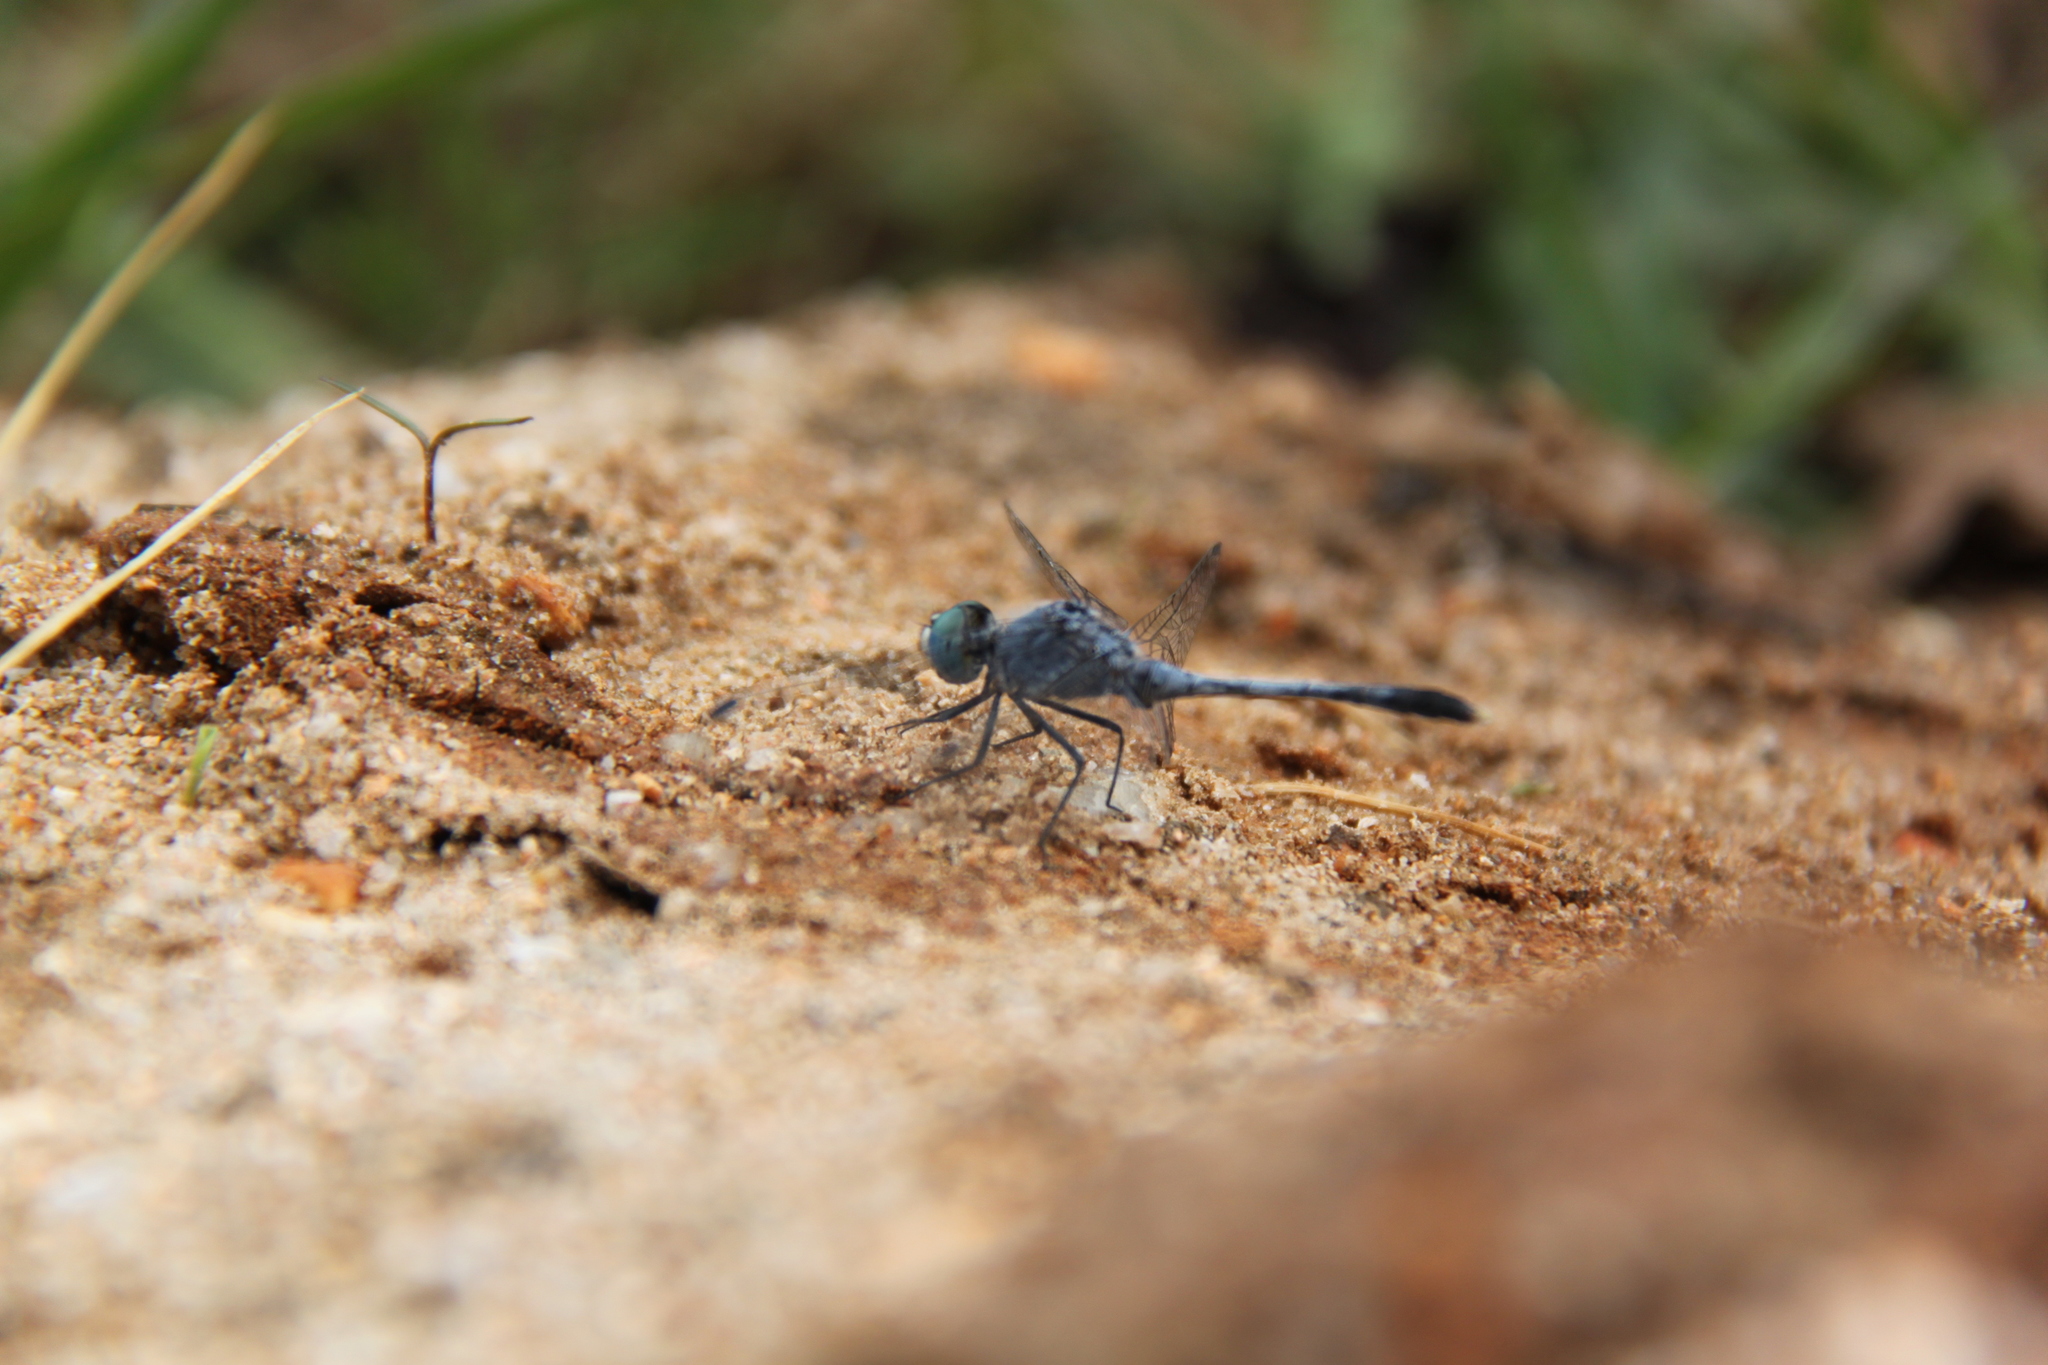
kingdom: Animalia
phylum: Arthropoda
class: Insecta
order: Odonata
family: Libellulidae
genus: Diplacodes
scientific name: Diplacodes trivialis
